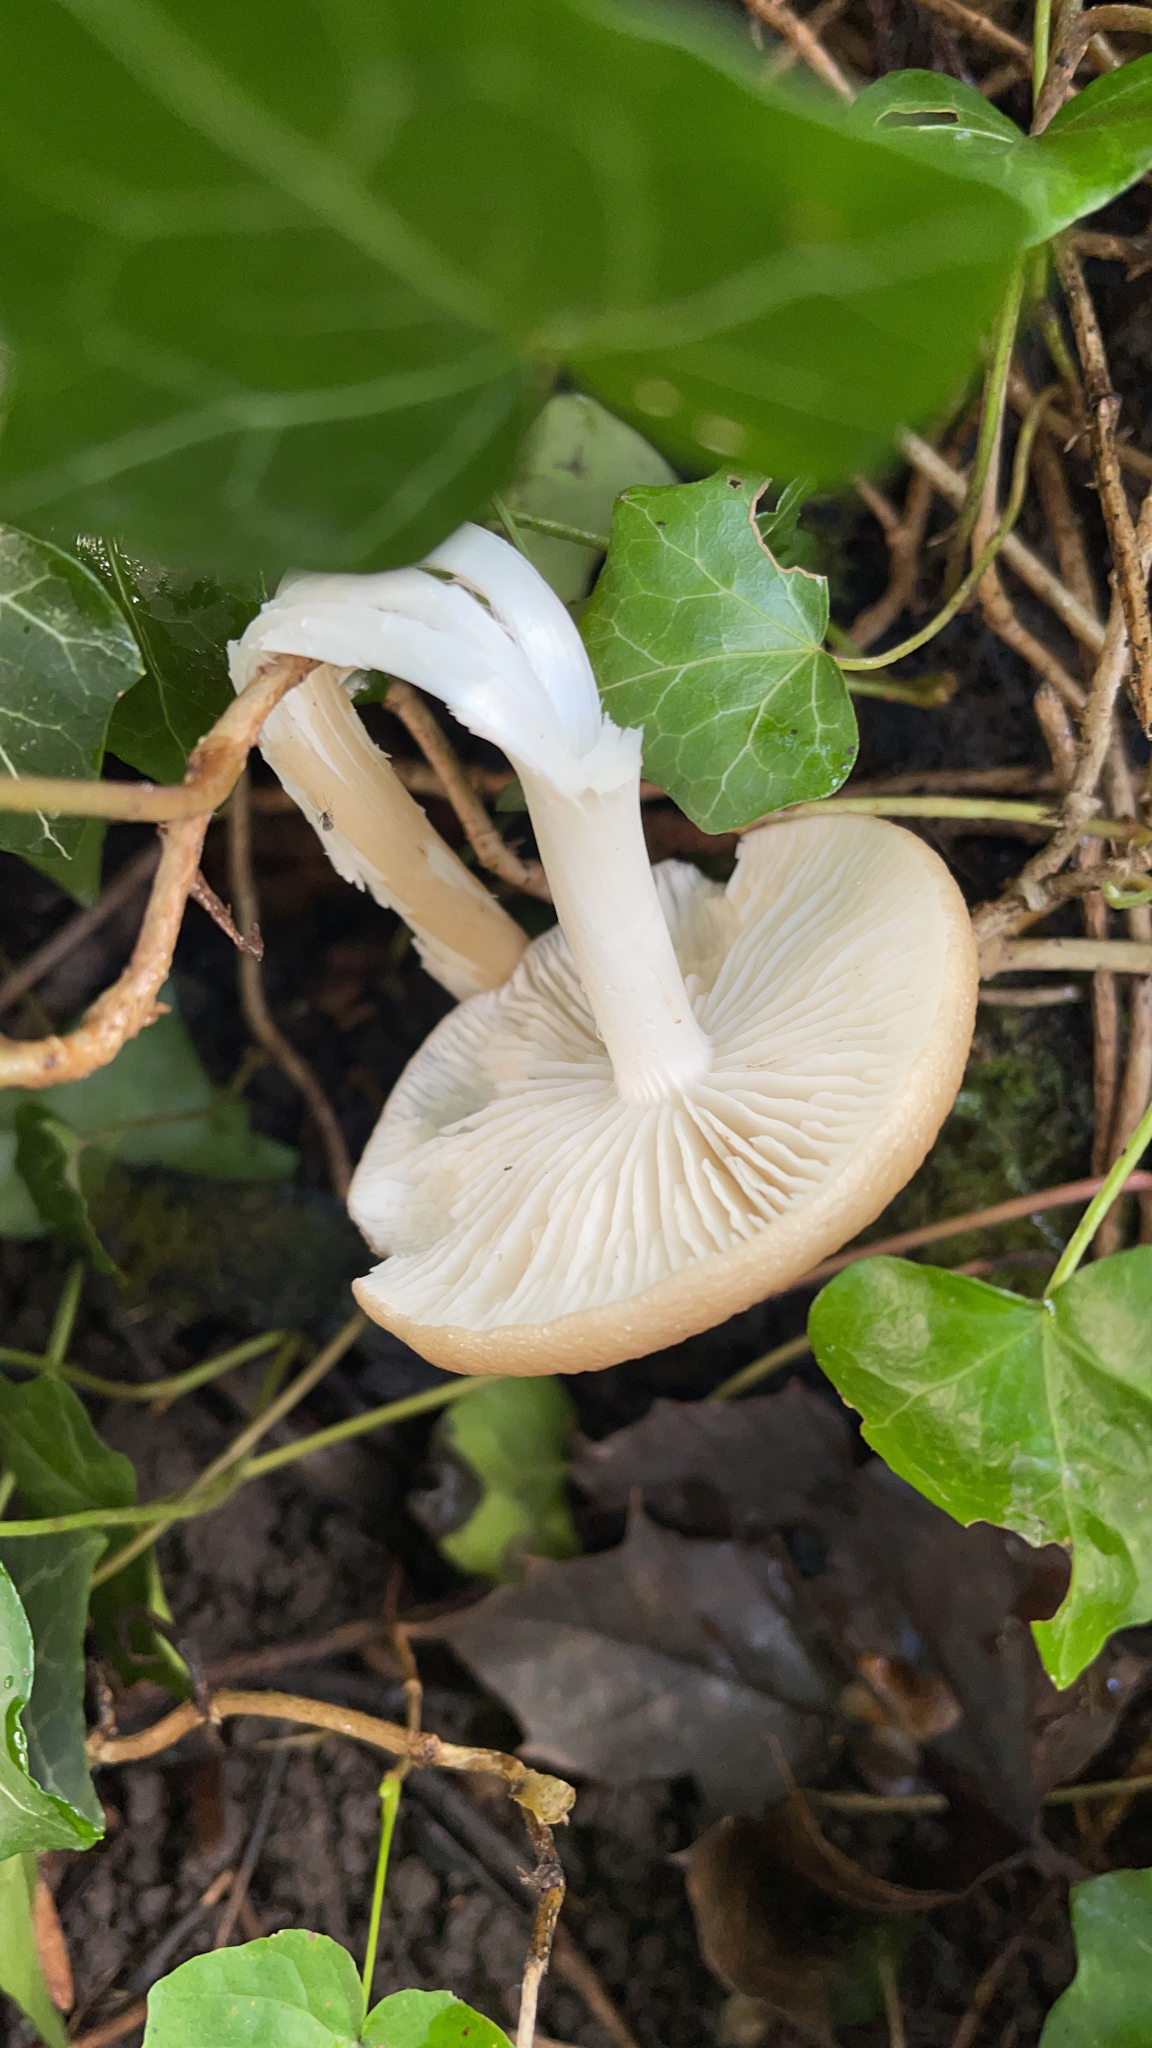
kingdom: Fungi
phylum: Basidiomycota
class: Agaricomycetes
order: Agaricales
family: Physalacriaceae
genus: Hymenopellis
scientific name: Hymenopellis radicata
